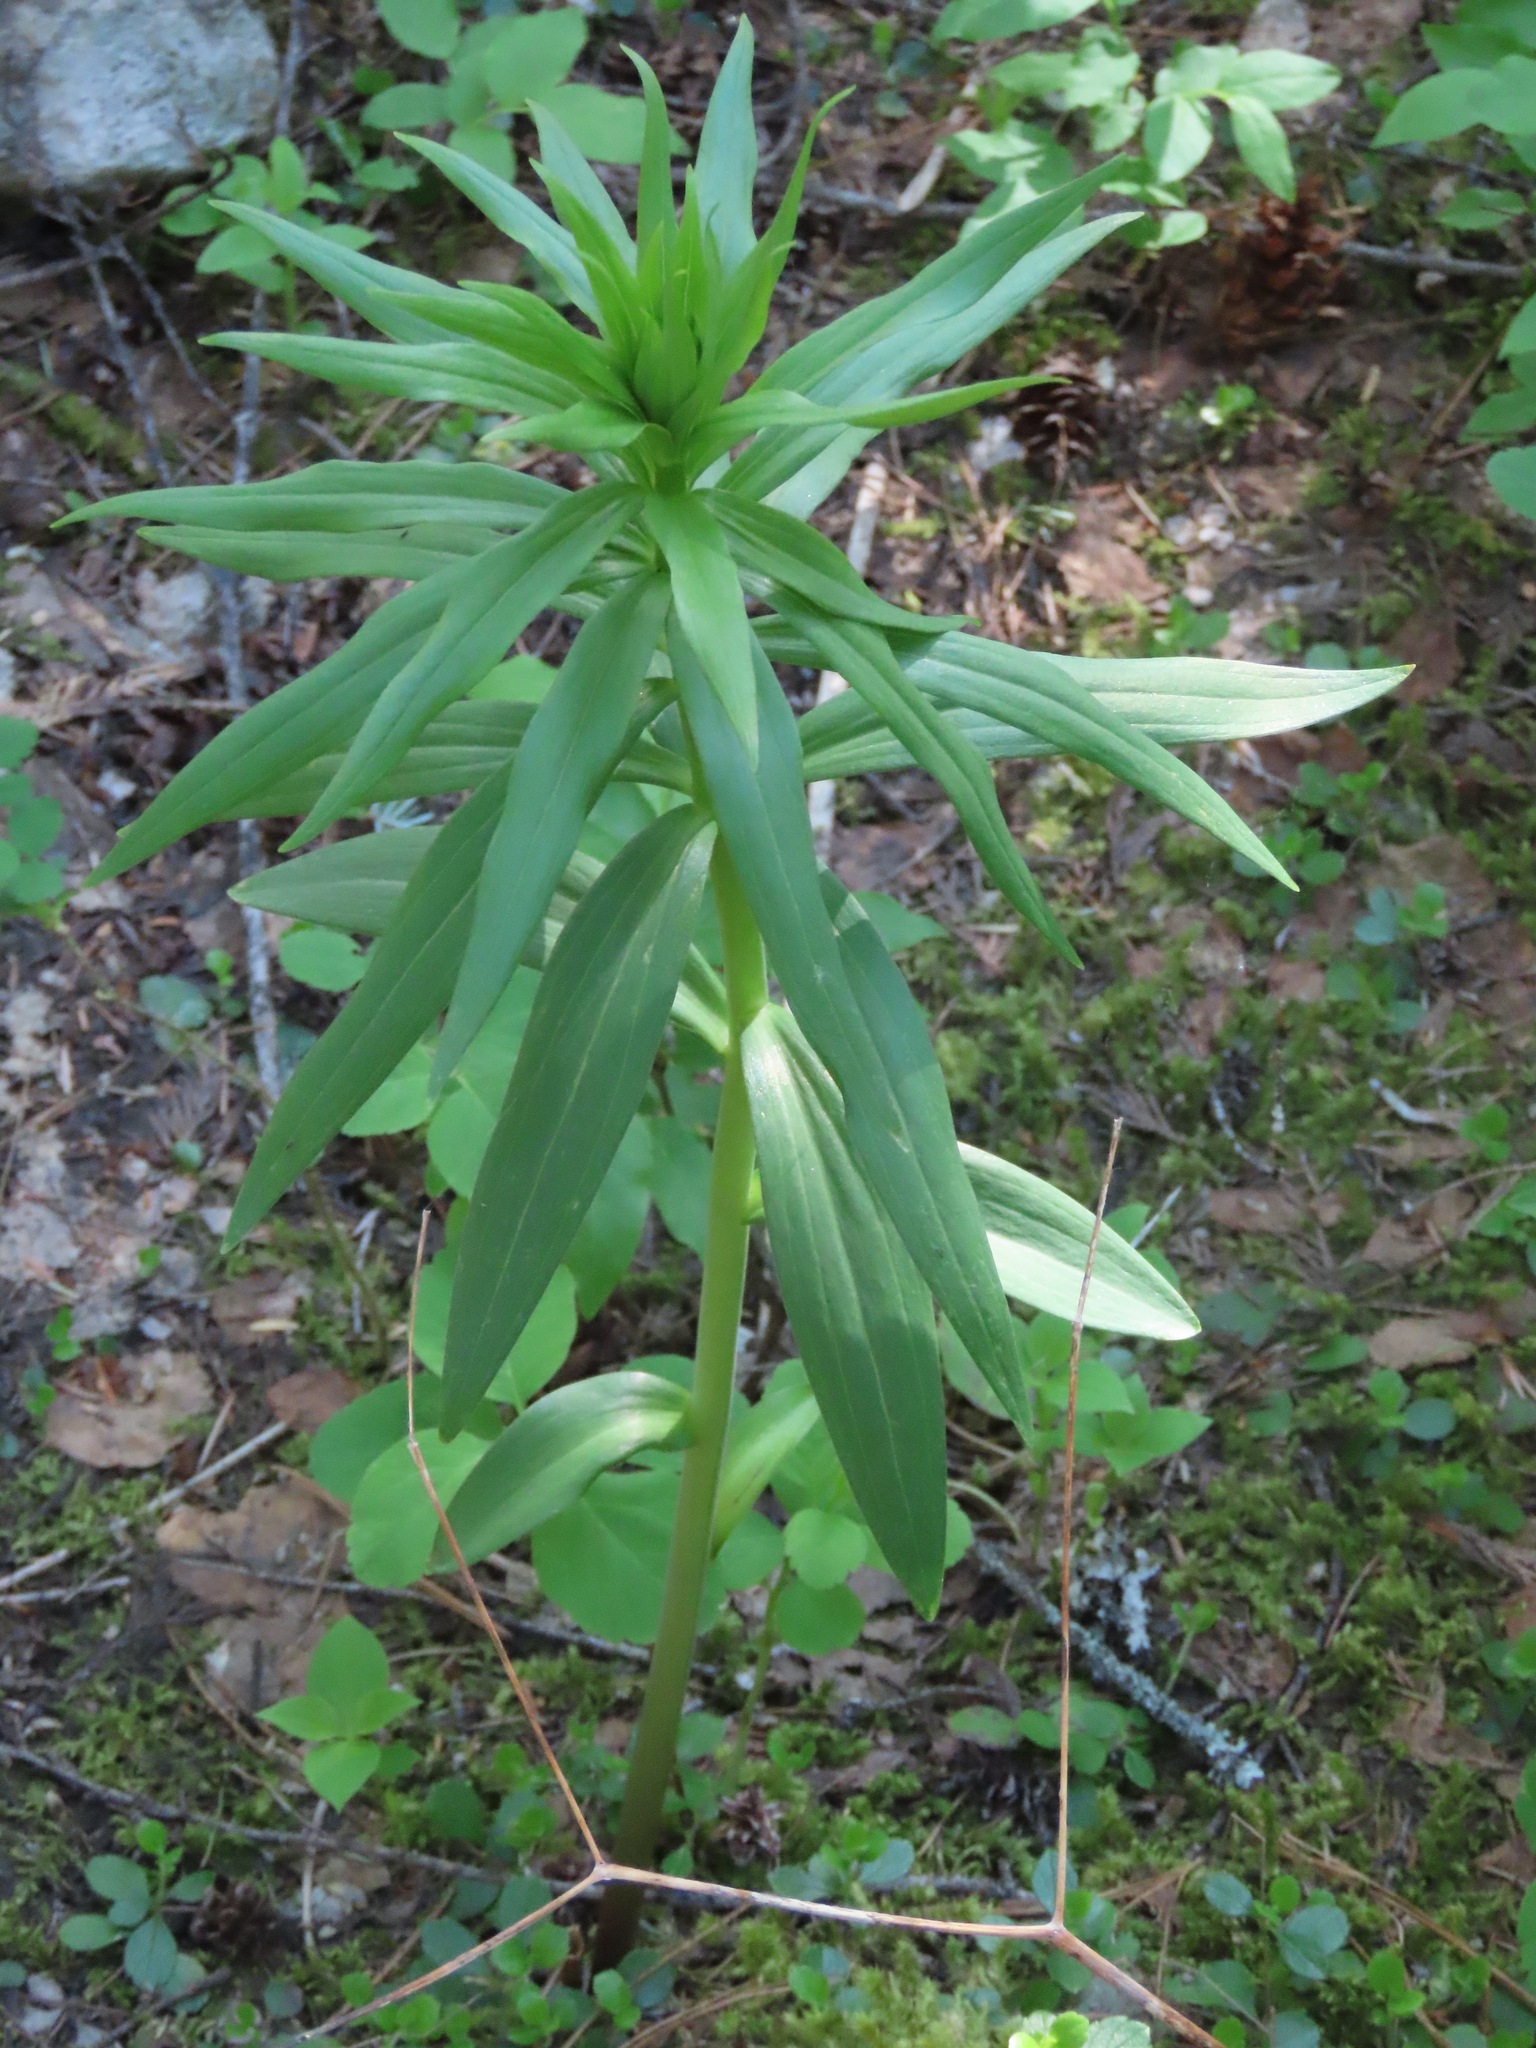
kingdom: Plantae
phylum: Tracheophyta
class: Liliopsida
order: Liliales
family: Liliaceae
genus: Lilium
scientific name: Lilium columbianum
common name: Columbia lily
